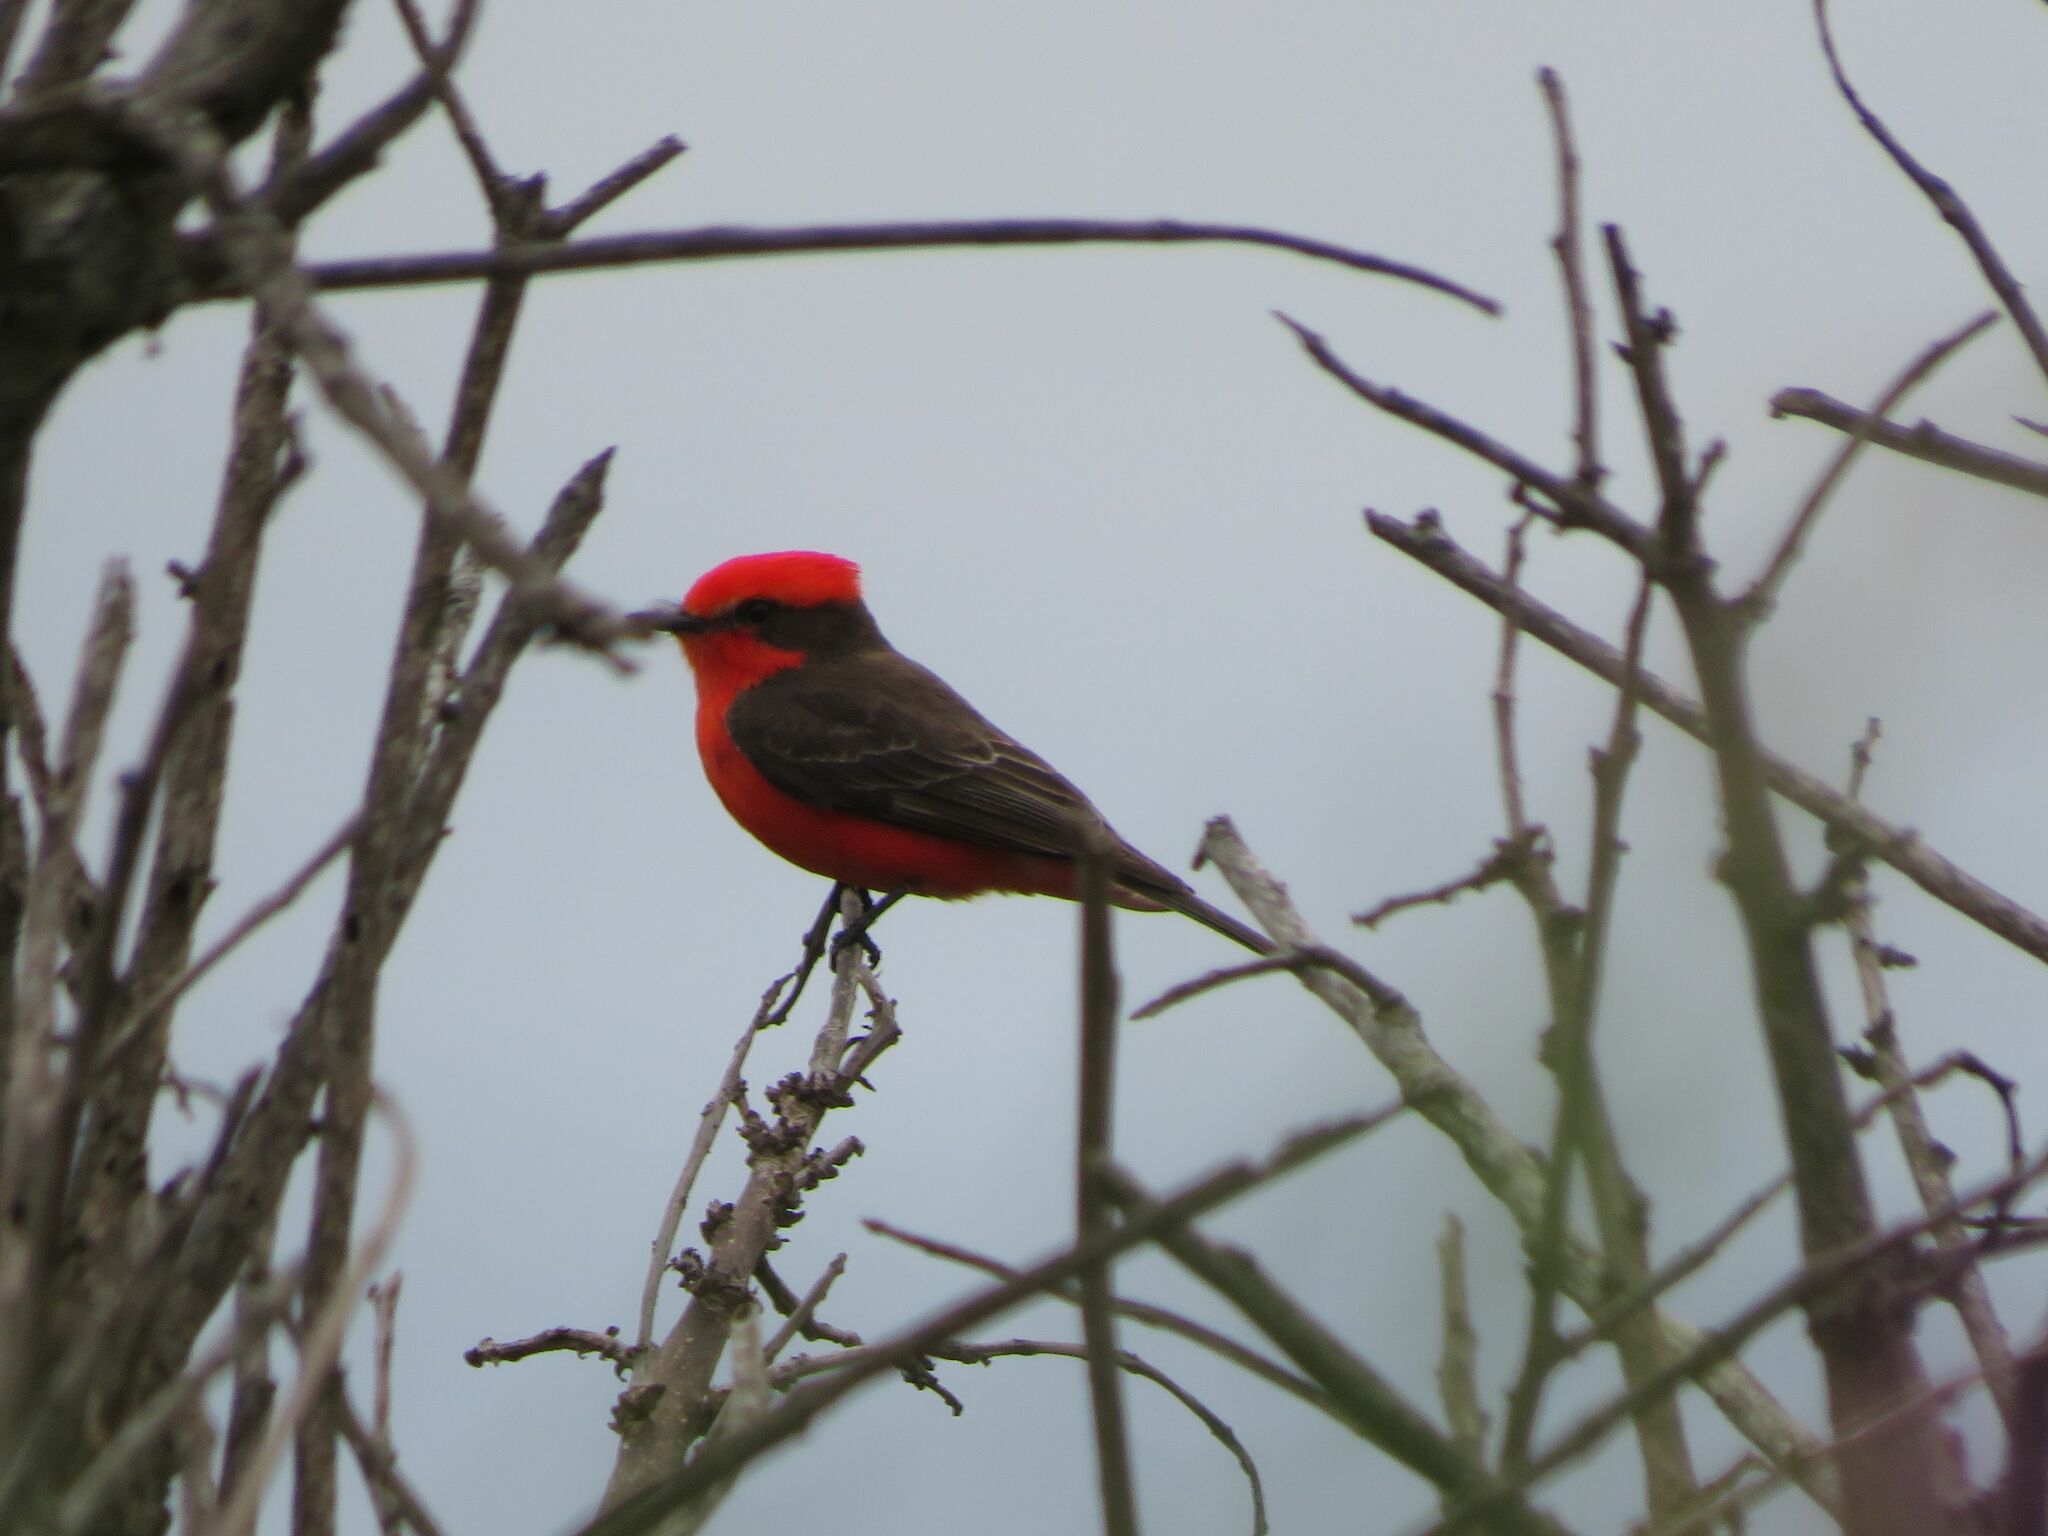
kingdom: Animalia
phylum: Chordata
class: Aves
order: Passeriformes
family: Tyrannidae
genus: Pyrocephalus
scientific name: Pyrocephalus rubinus
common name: Vermilion flycatcher
